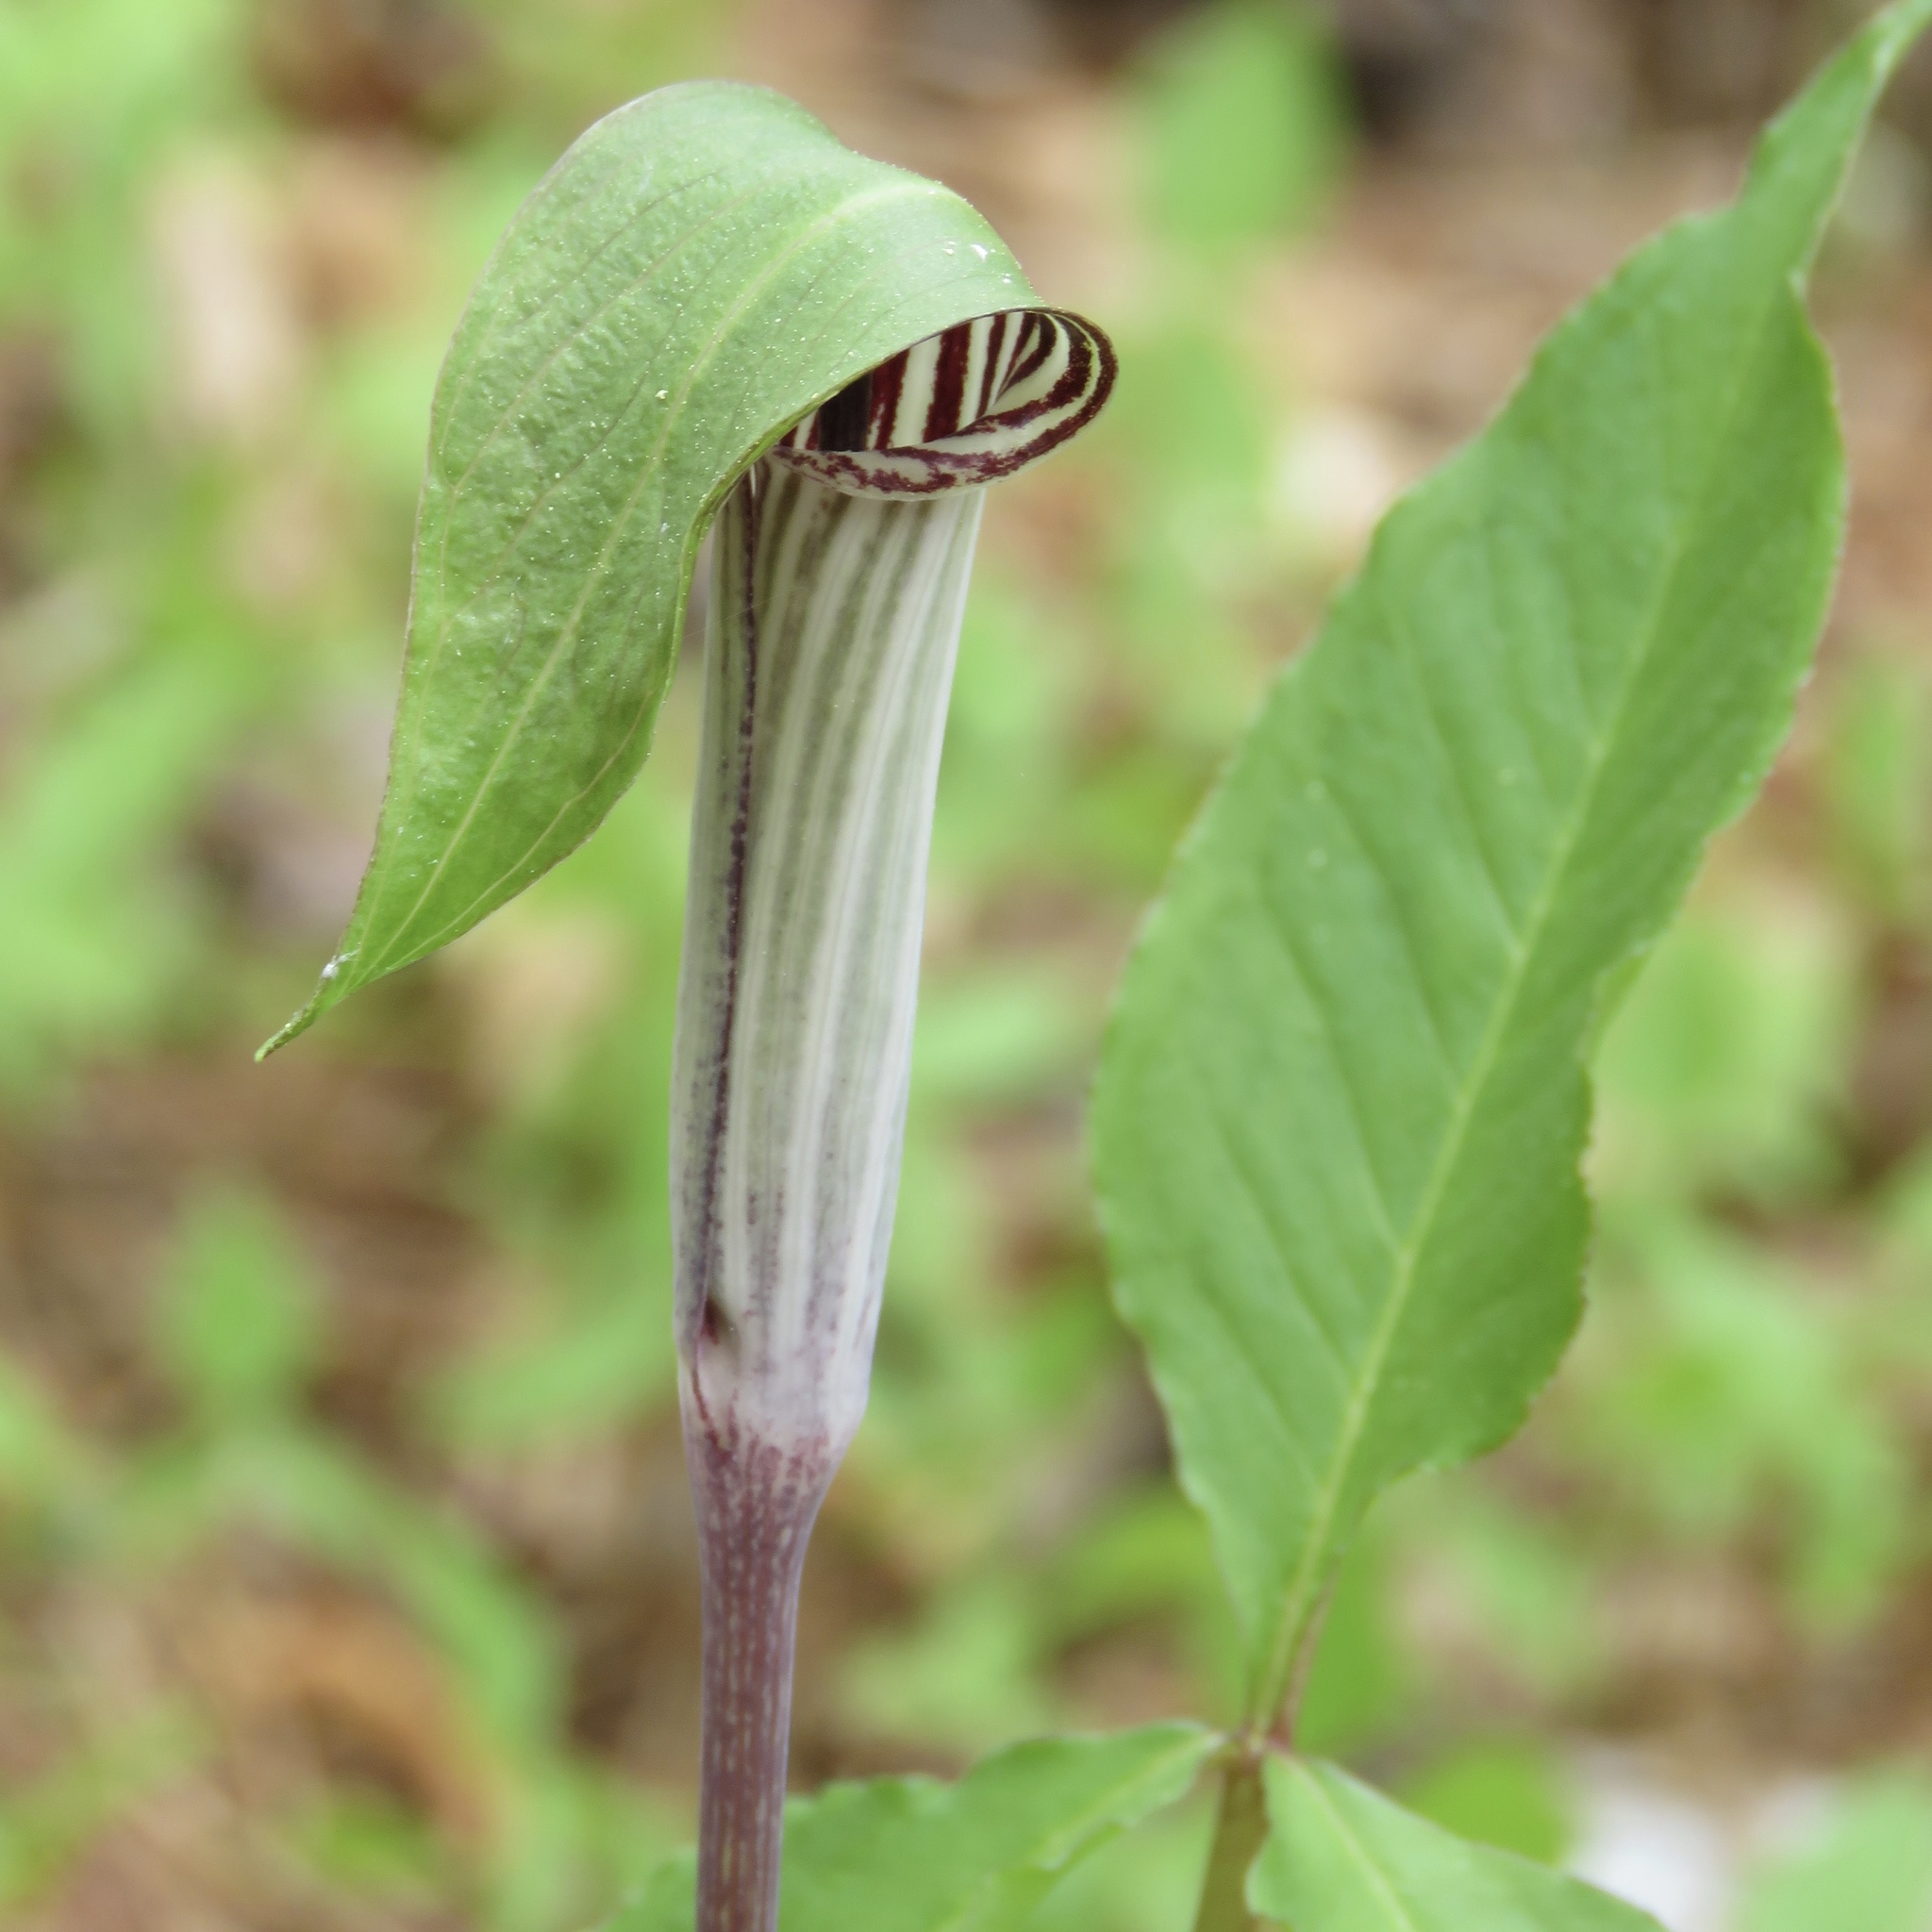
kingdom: Plantae
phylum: Tracheophyta
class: Liliopsida
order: Alismatales
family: Araceae
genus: Arisaema
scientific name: Arisaema triphyllum
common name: Jack-in-the-pulpit
